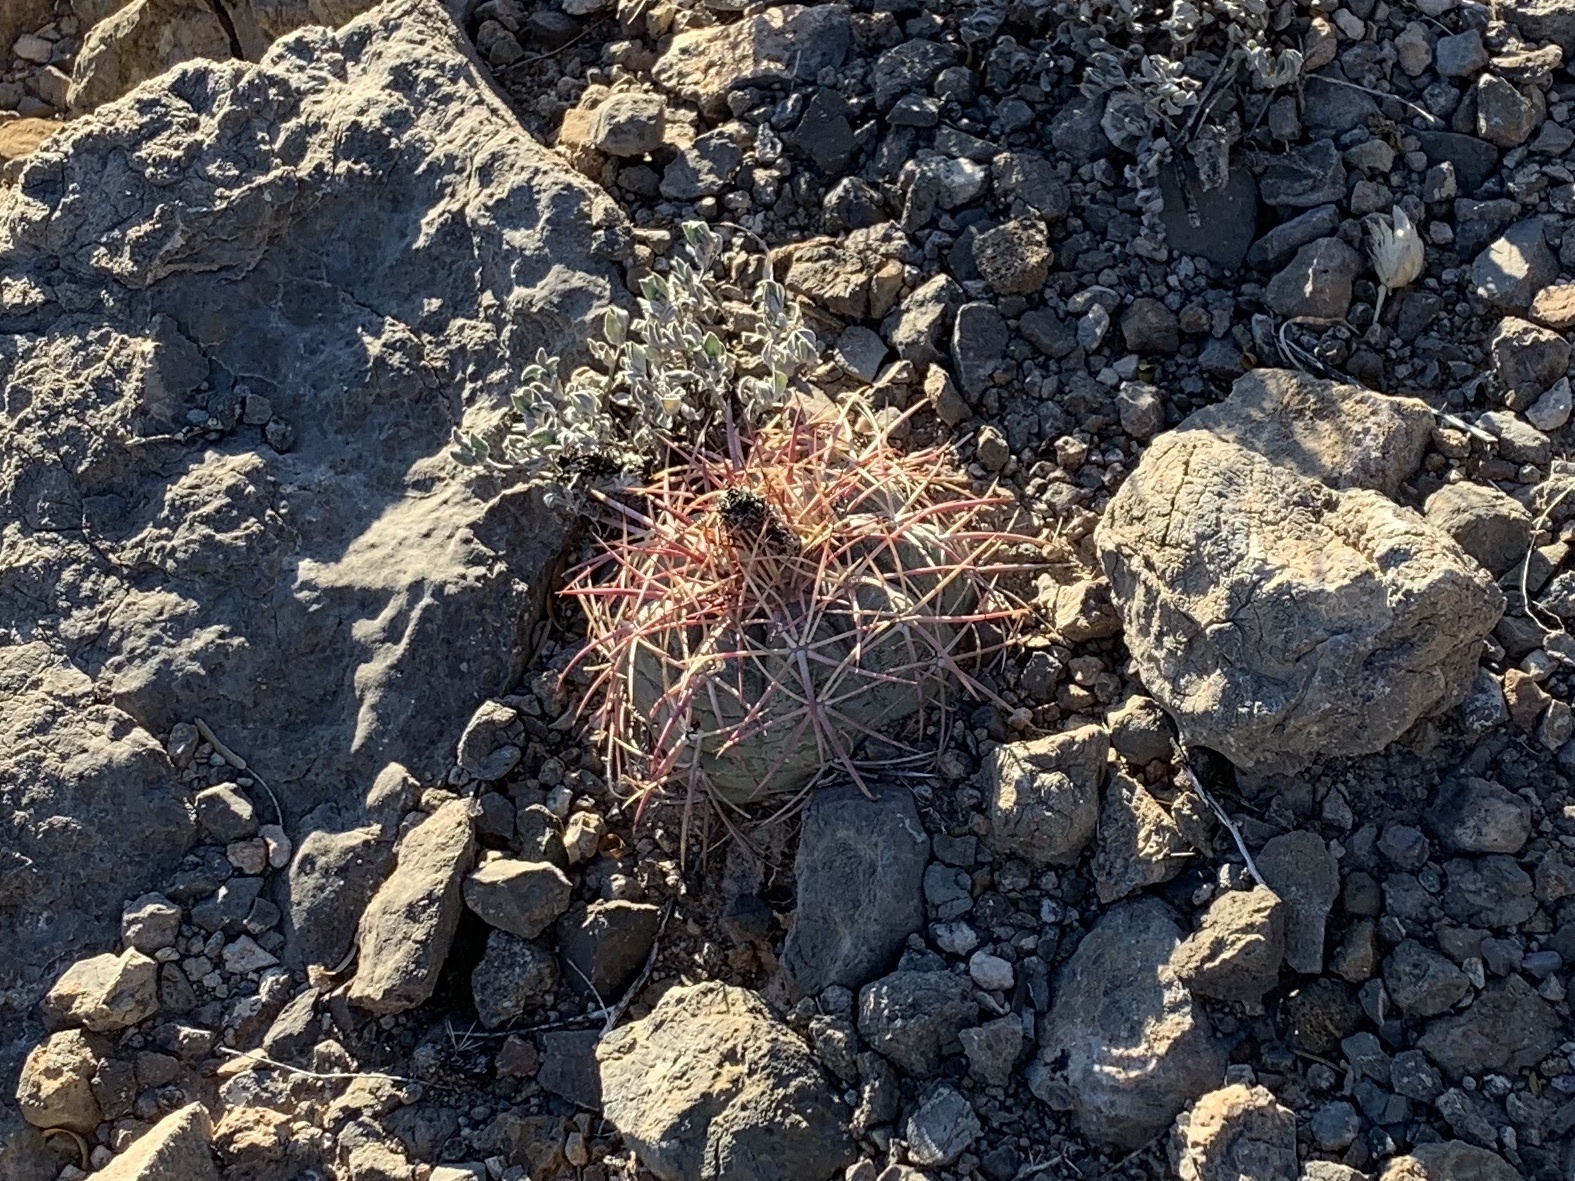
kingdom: Plantae
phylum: Tracheophyta
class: Magnoliopsida
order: Caryophyllales
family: Cactaceae
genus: Echinocactus
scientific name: Echinocactus horizonthalonius
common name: Devilshead
